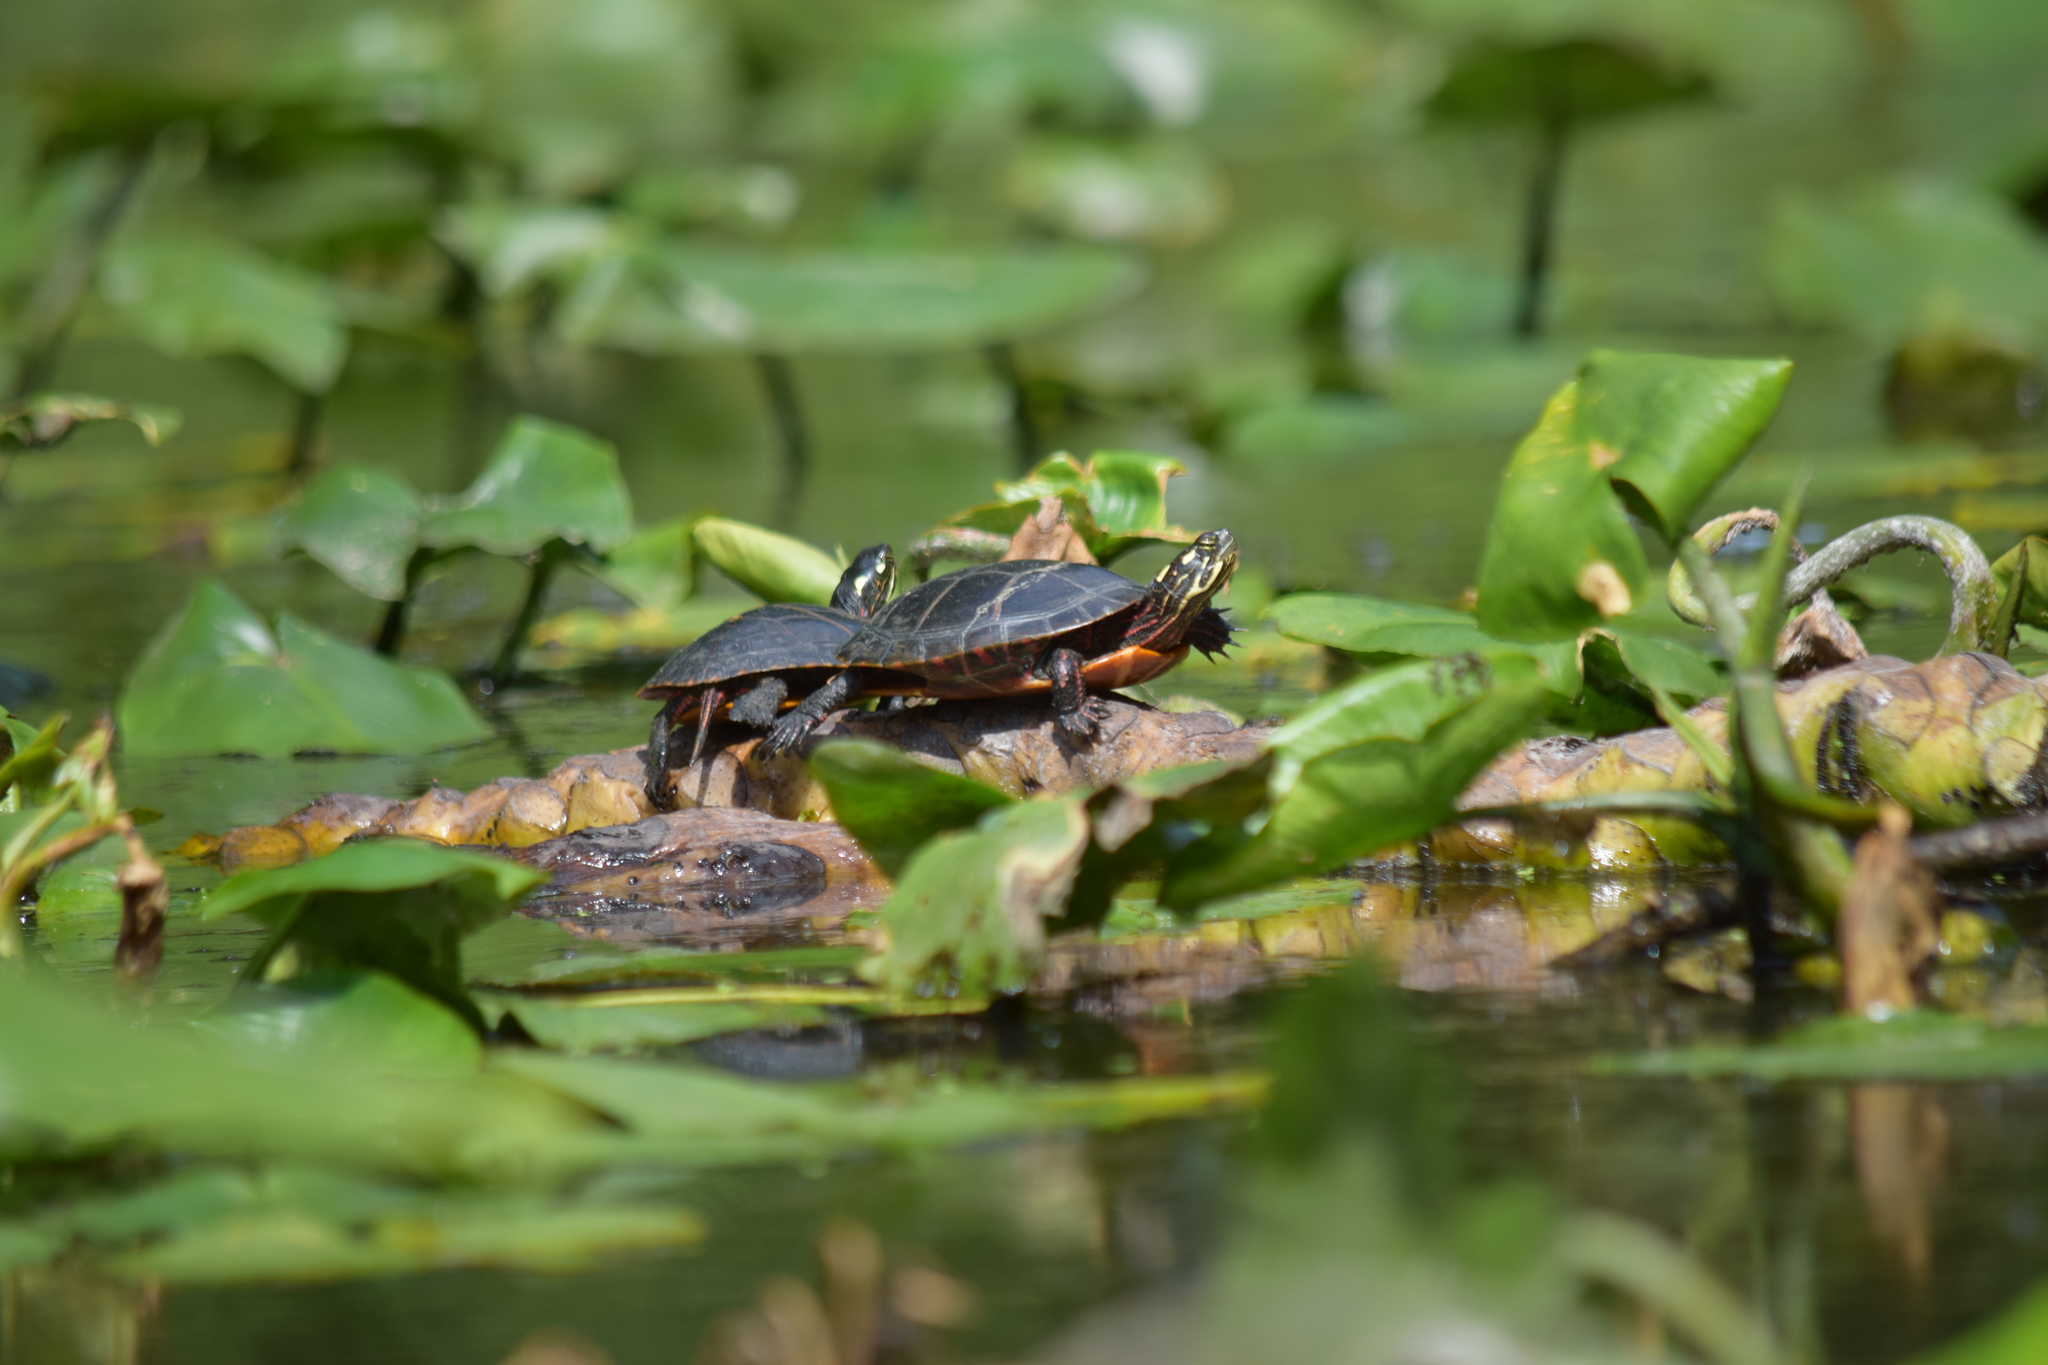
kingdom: Animalia
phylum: Chordata
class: Testudines
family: Emydidae
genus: Chrysemys
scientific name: Chrysemys picta
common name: Painted turtle
